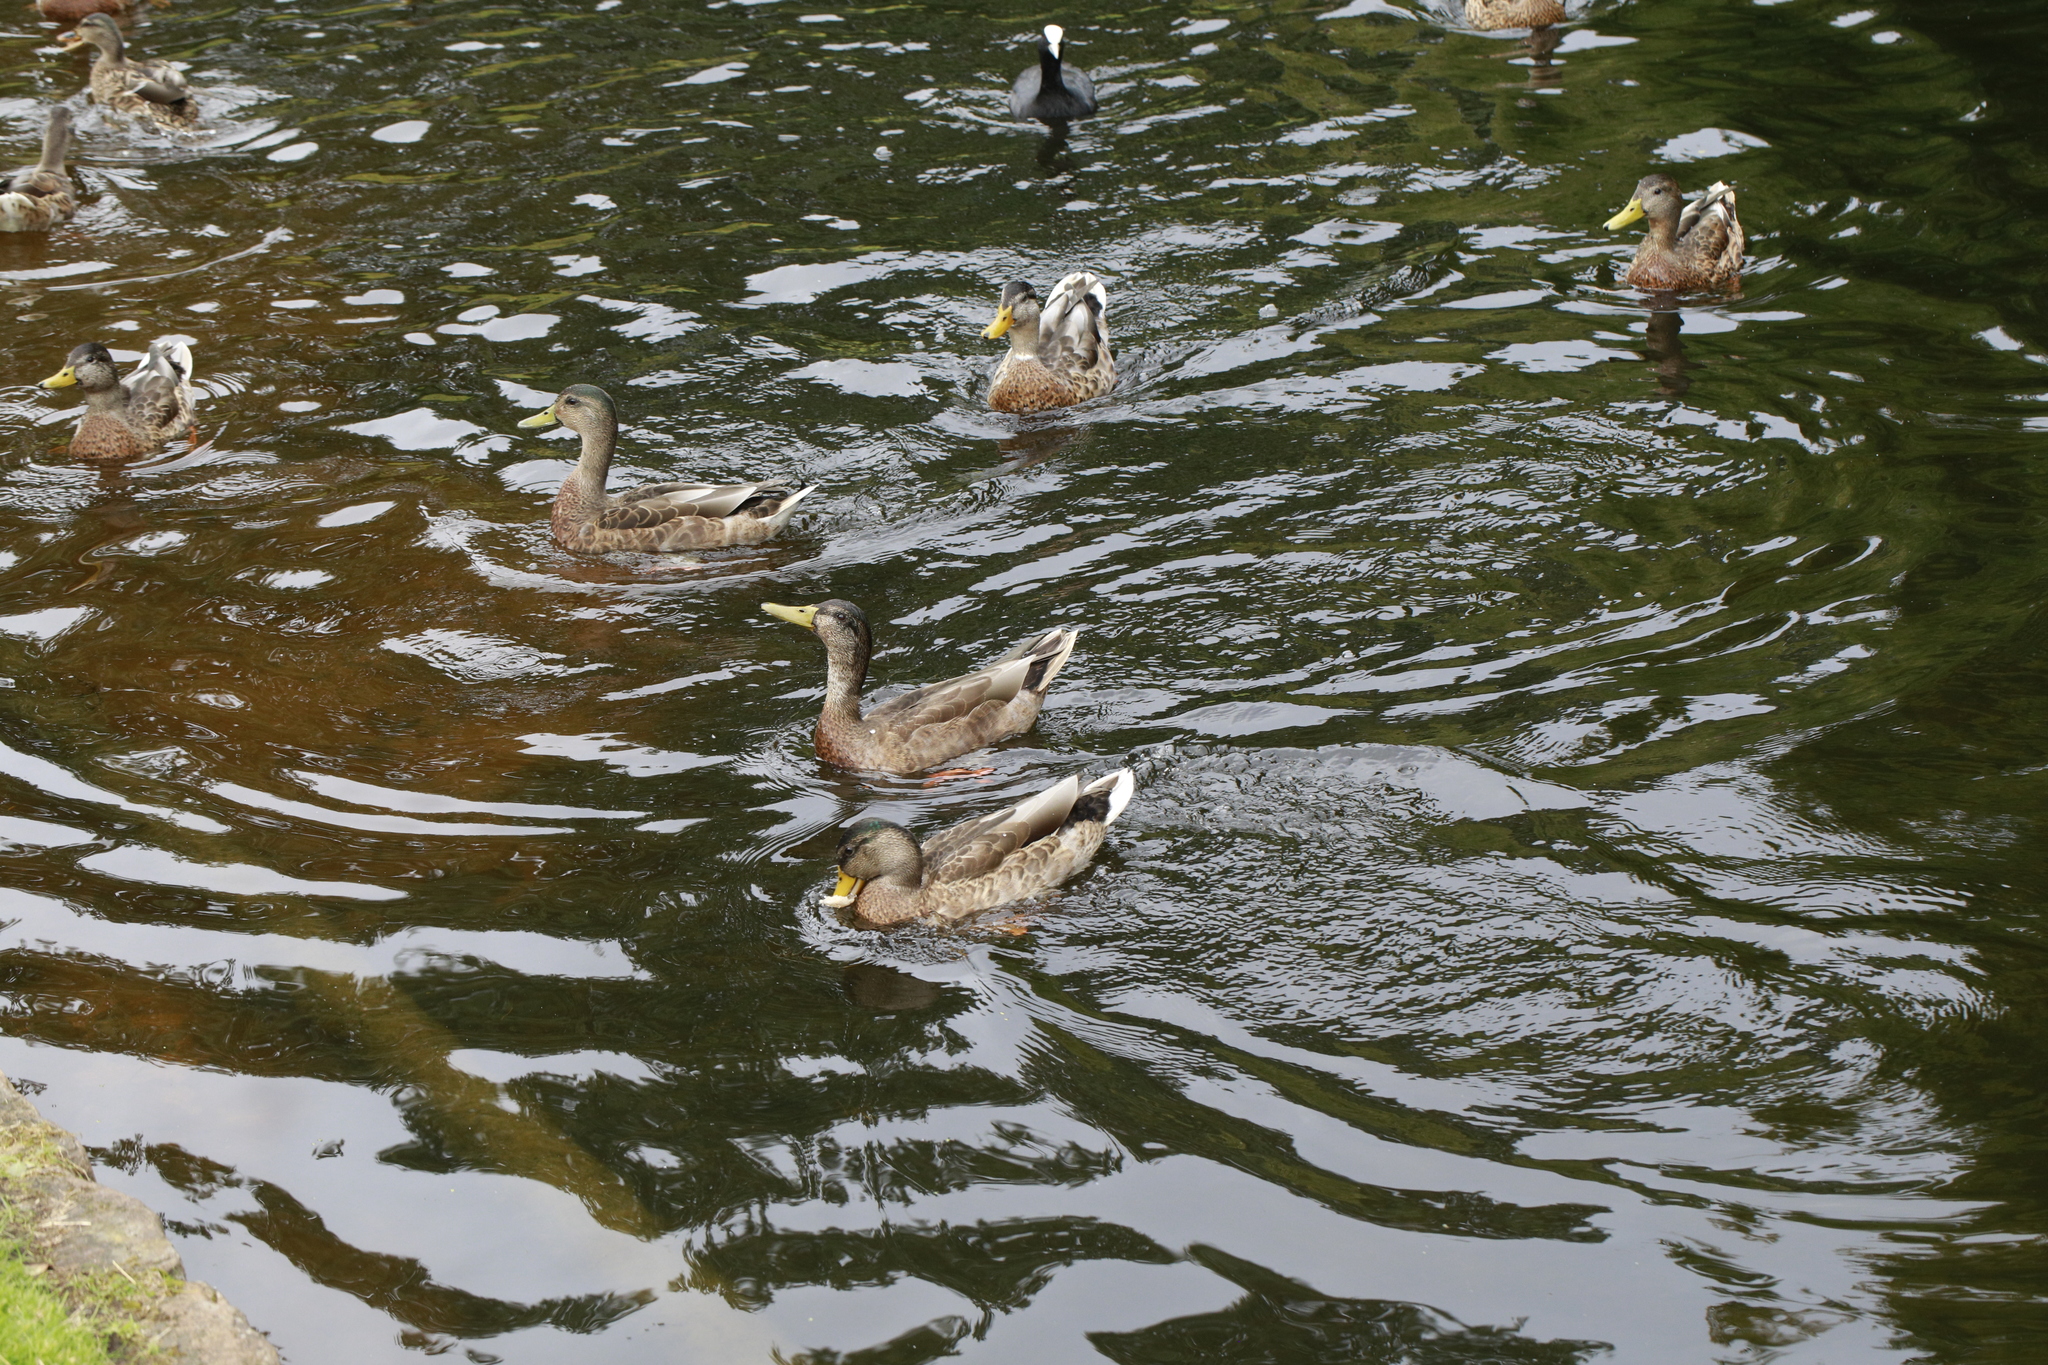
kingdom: Animalia
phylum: Chordata
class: Aves
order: Anseriformes
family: Anatidae
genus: Anas
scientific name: Anas platyrhynchos
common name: Mallard
